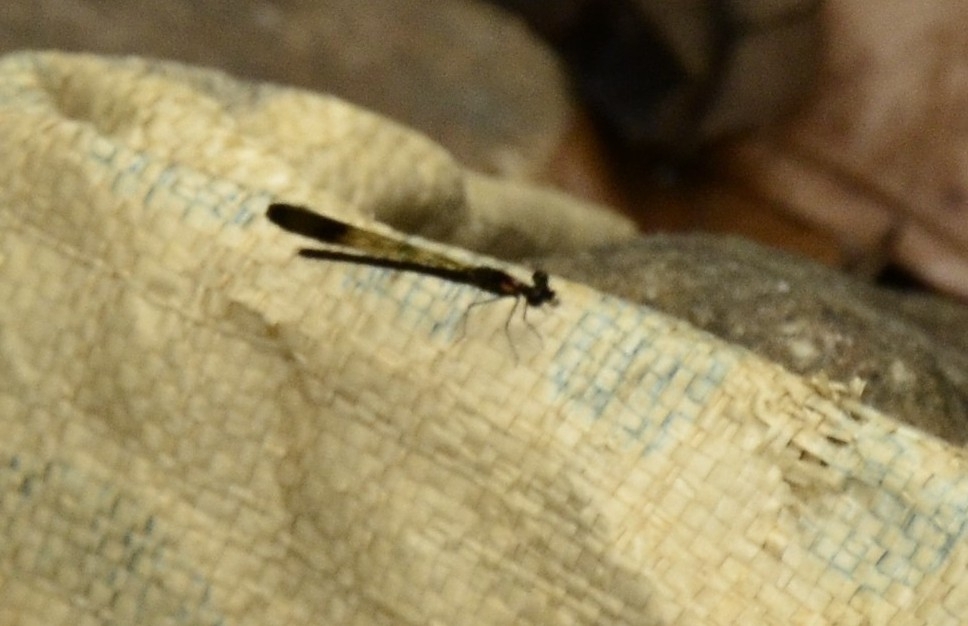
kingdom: Animalia
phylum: Arthropoda
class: Insecta
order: Odonata
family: Chlorocyphidae
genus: Heliocypha
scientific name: Heliocypha bisignata
